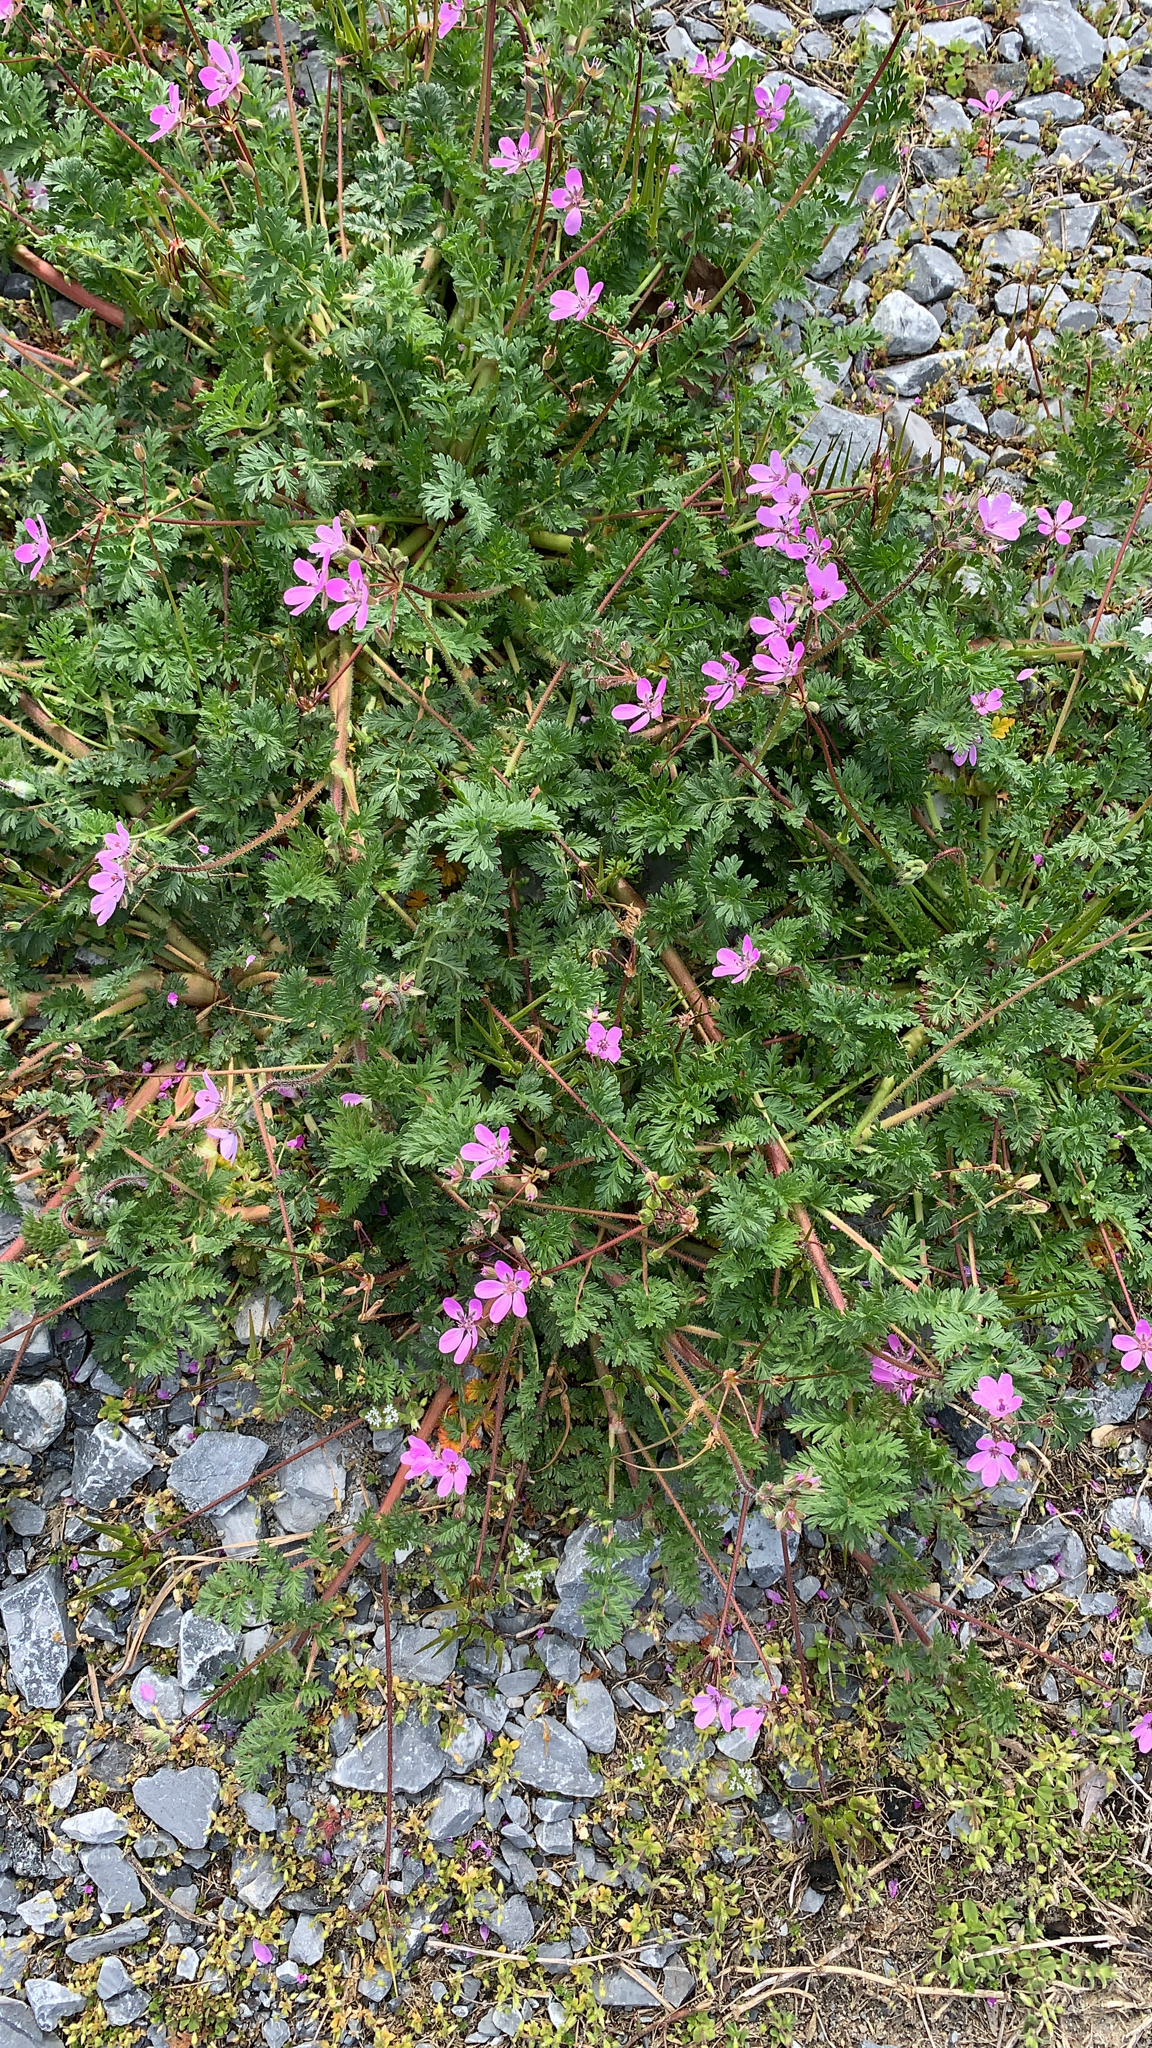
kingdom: Plantae
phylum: Tracheophyta
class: Magnoliopsida
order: Geraniales
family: Geraniaceae
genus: Erodium
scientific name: Erodium cicutarium
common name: Common stork's-bill
